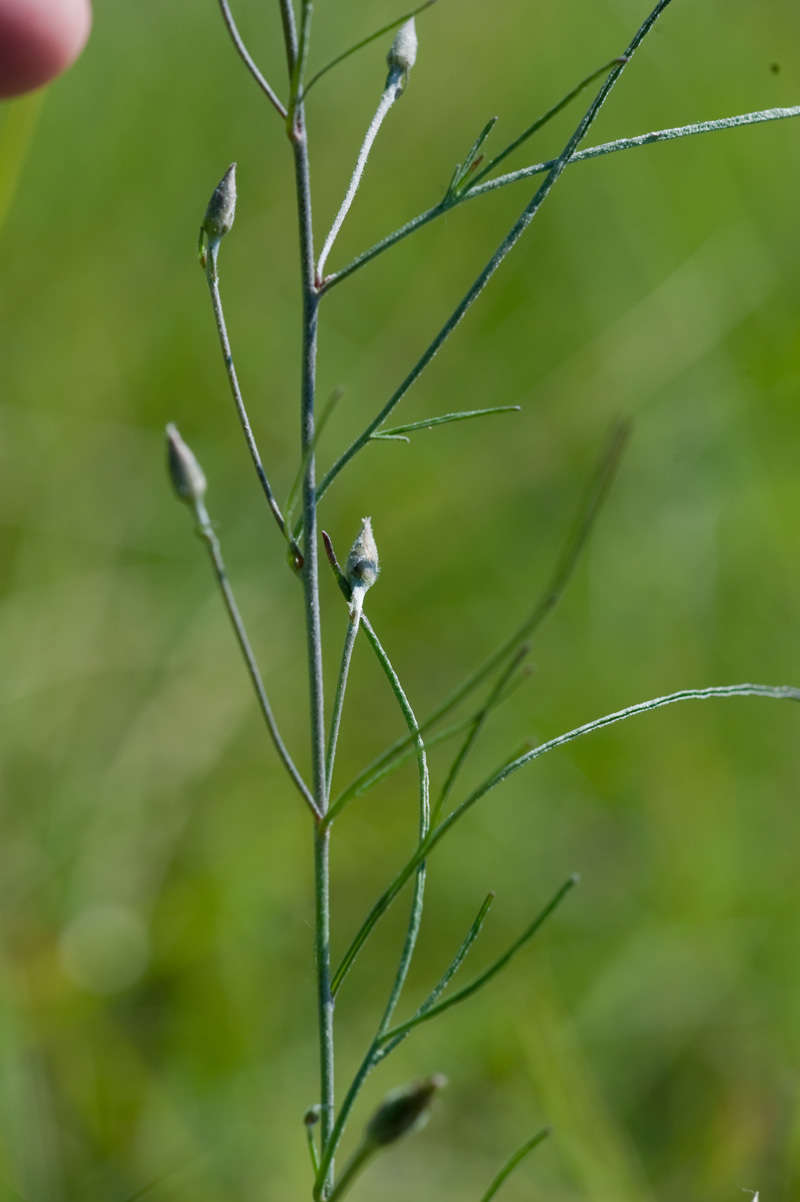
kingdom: Plantae
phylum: Tracheophyta
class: Magnoliopsida
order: Solanales
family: Convolvulaceae
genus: Convolvulus
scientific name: Convolvulus angustissimus
